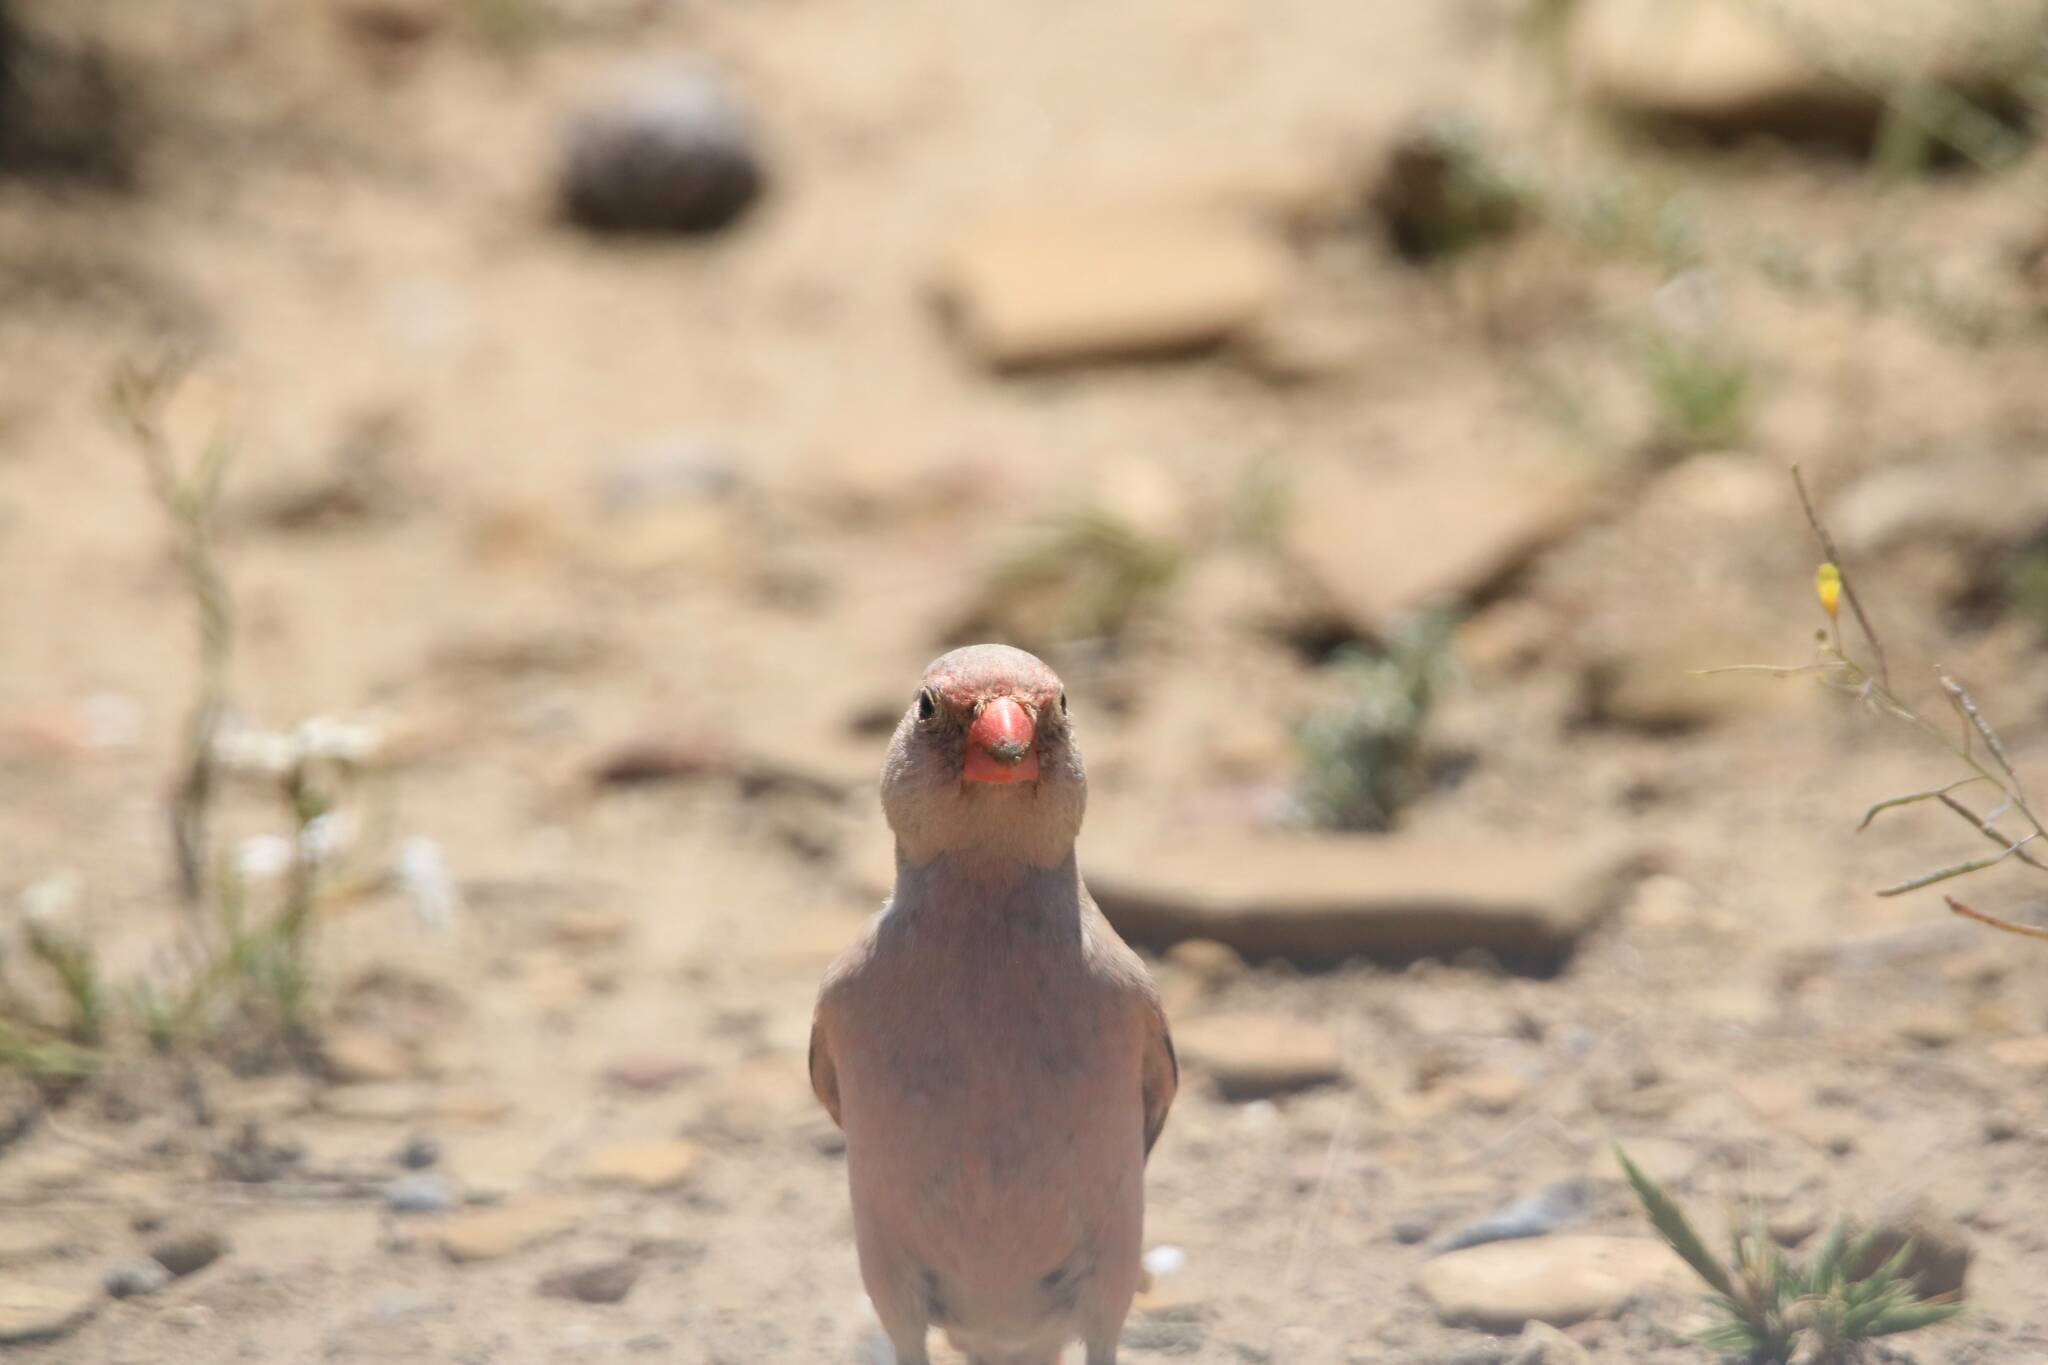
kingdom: Animalia
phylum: Chordata
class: Aves
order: Passeriformes
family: Fringillidae
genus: Bucanetes
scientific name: Bucanetes githagineus
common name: Trumpeter finch
